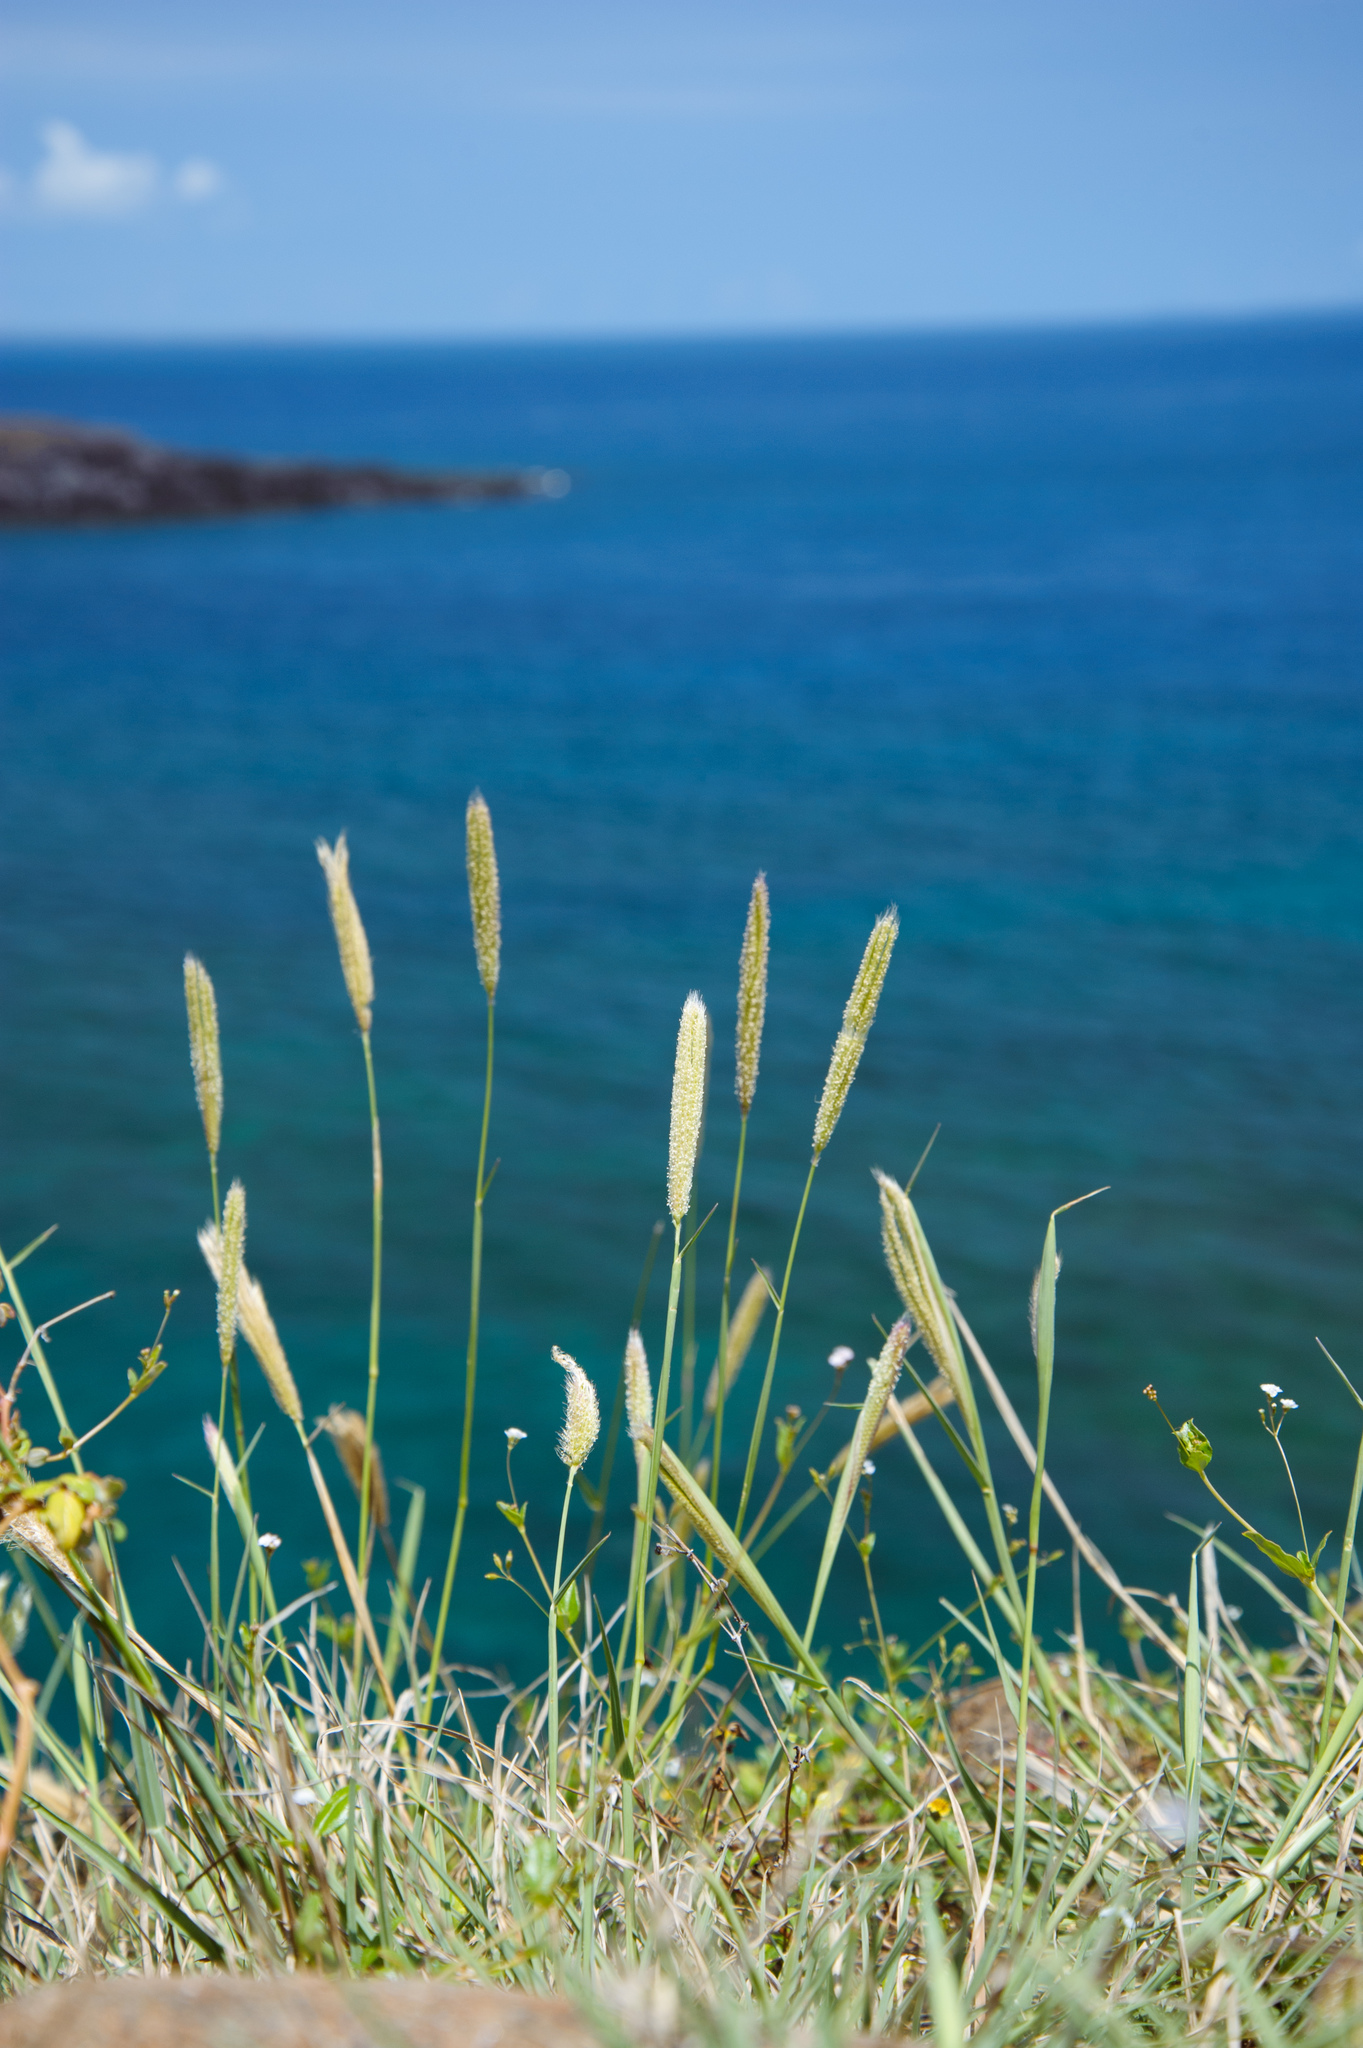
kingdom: Plantae
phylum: Tracheophyta
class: Liliopsida
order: Poales
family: Poaceae
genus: Chloris
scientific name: Chloris formosana
